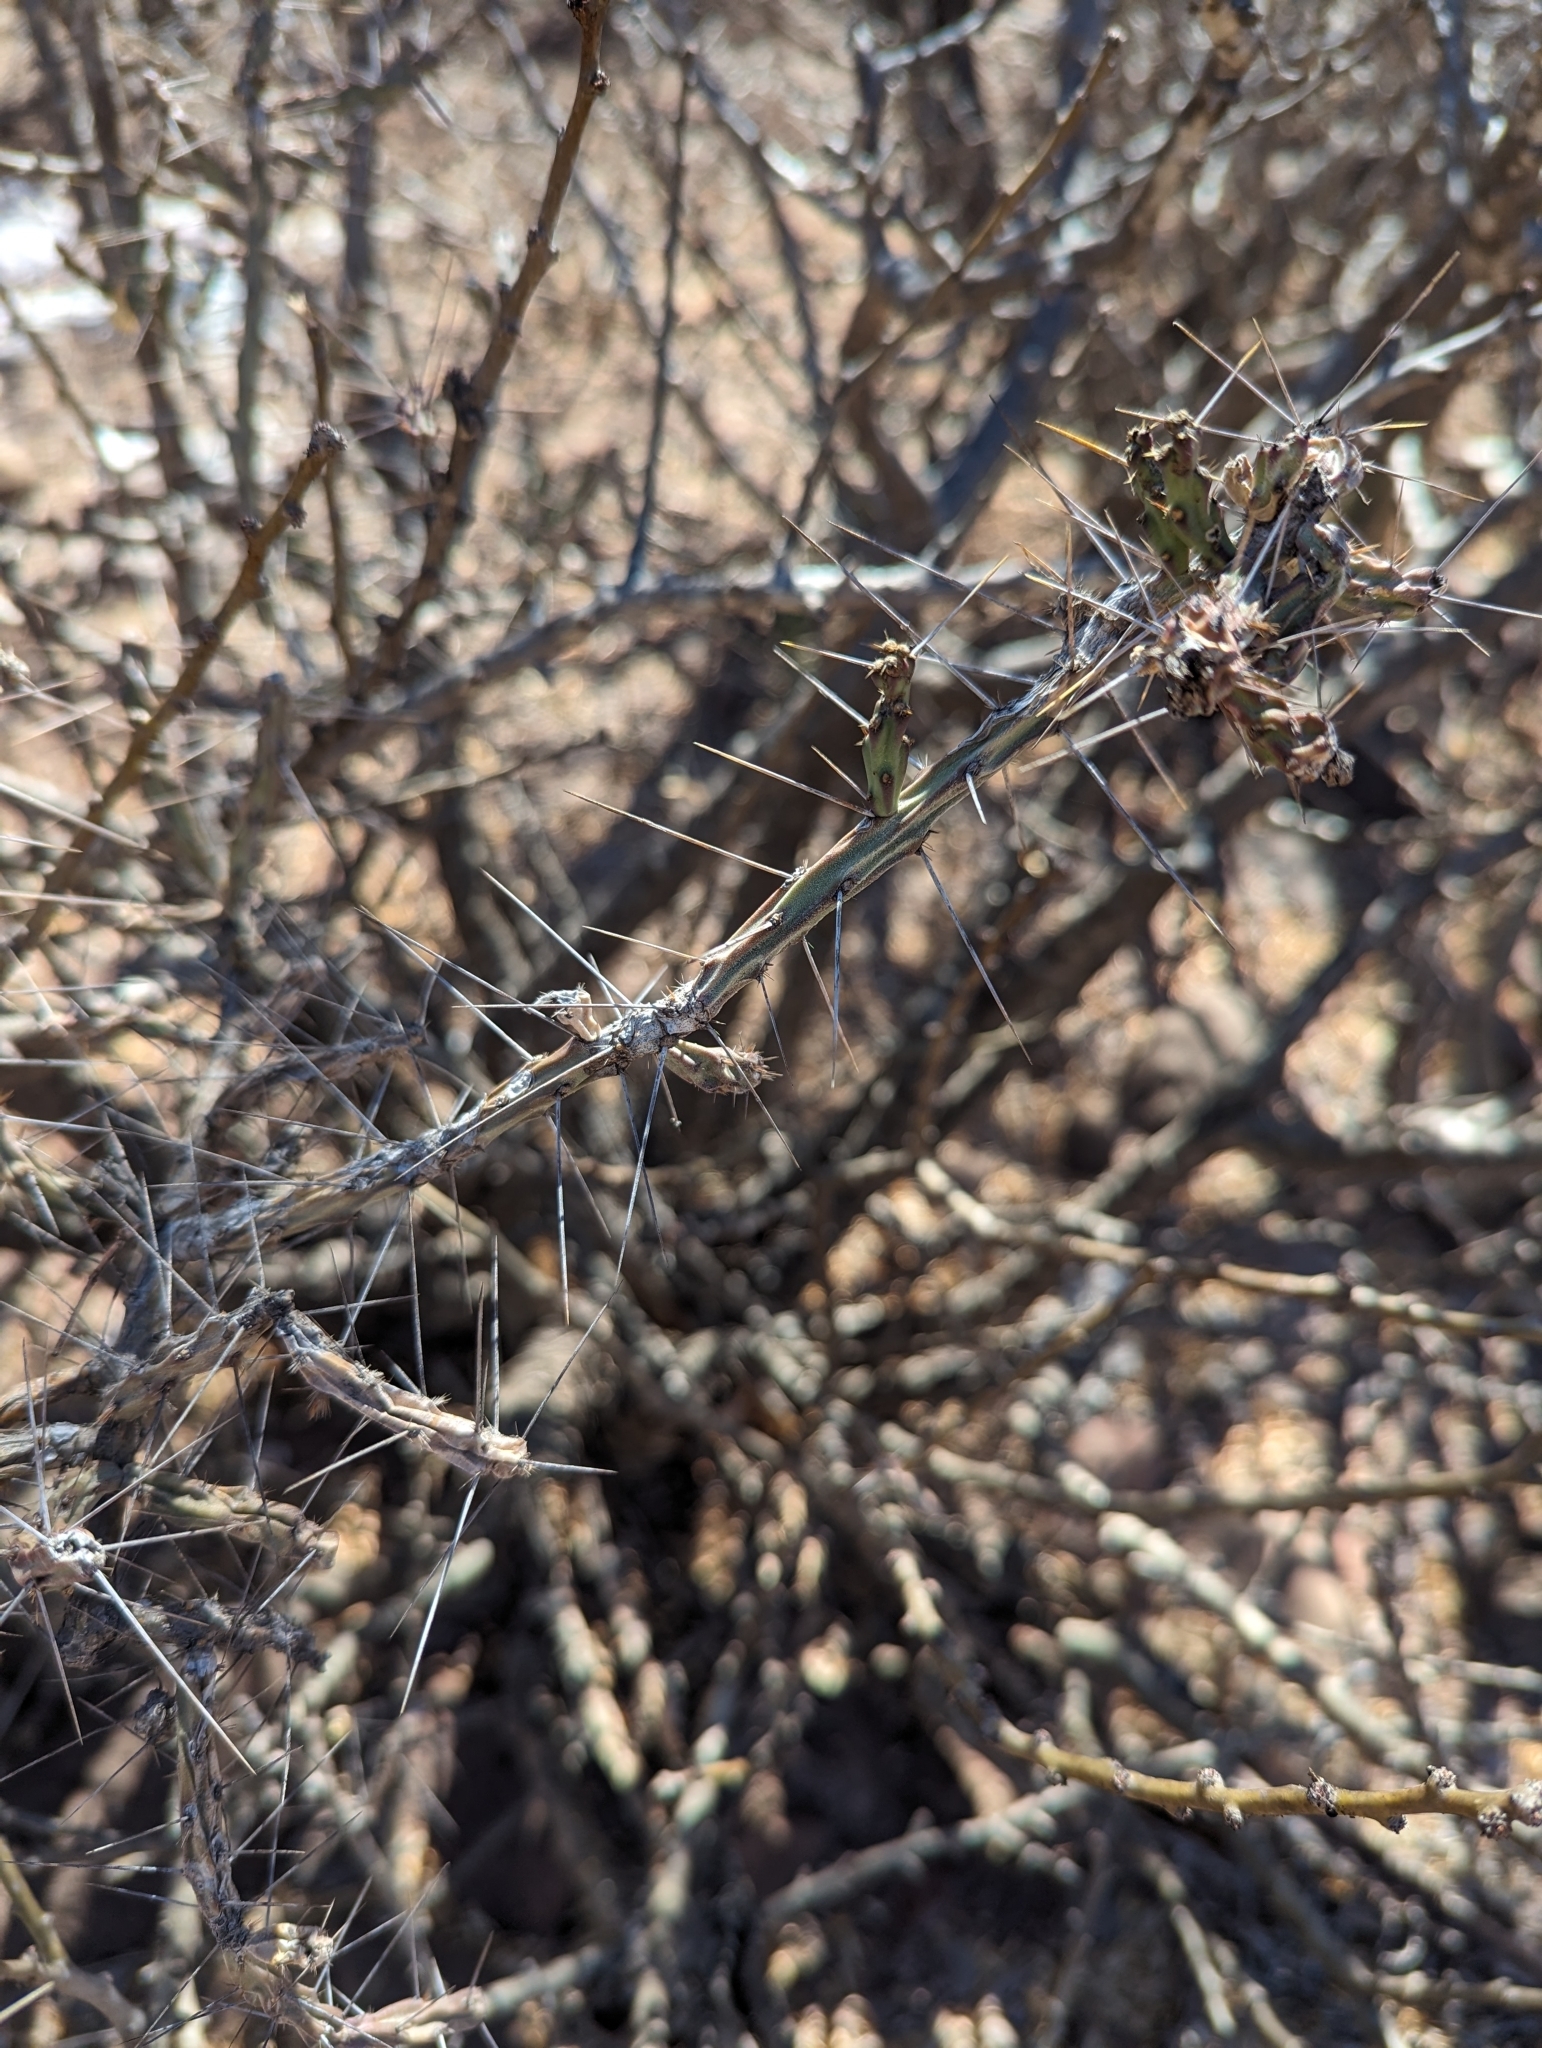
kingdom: Plantae
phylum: Tracheophyta
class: Magnoliopsida
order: Caryophyllales
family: Cactaceae
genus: Cylindropuntia
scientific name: Cylindropuntia lindsayi
